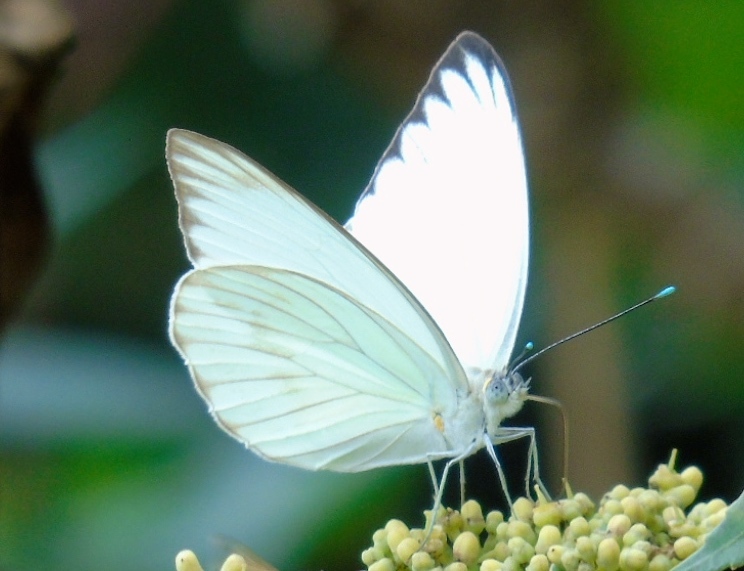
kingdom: Animalia
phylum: Arthropoda
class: Insecta
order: Lepidoptera
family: Pieridae
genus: Ascia
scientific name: Ascia monuste
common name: Great southern white
